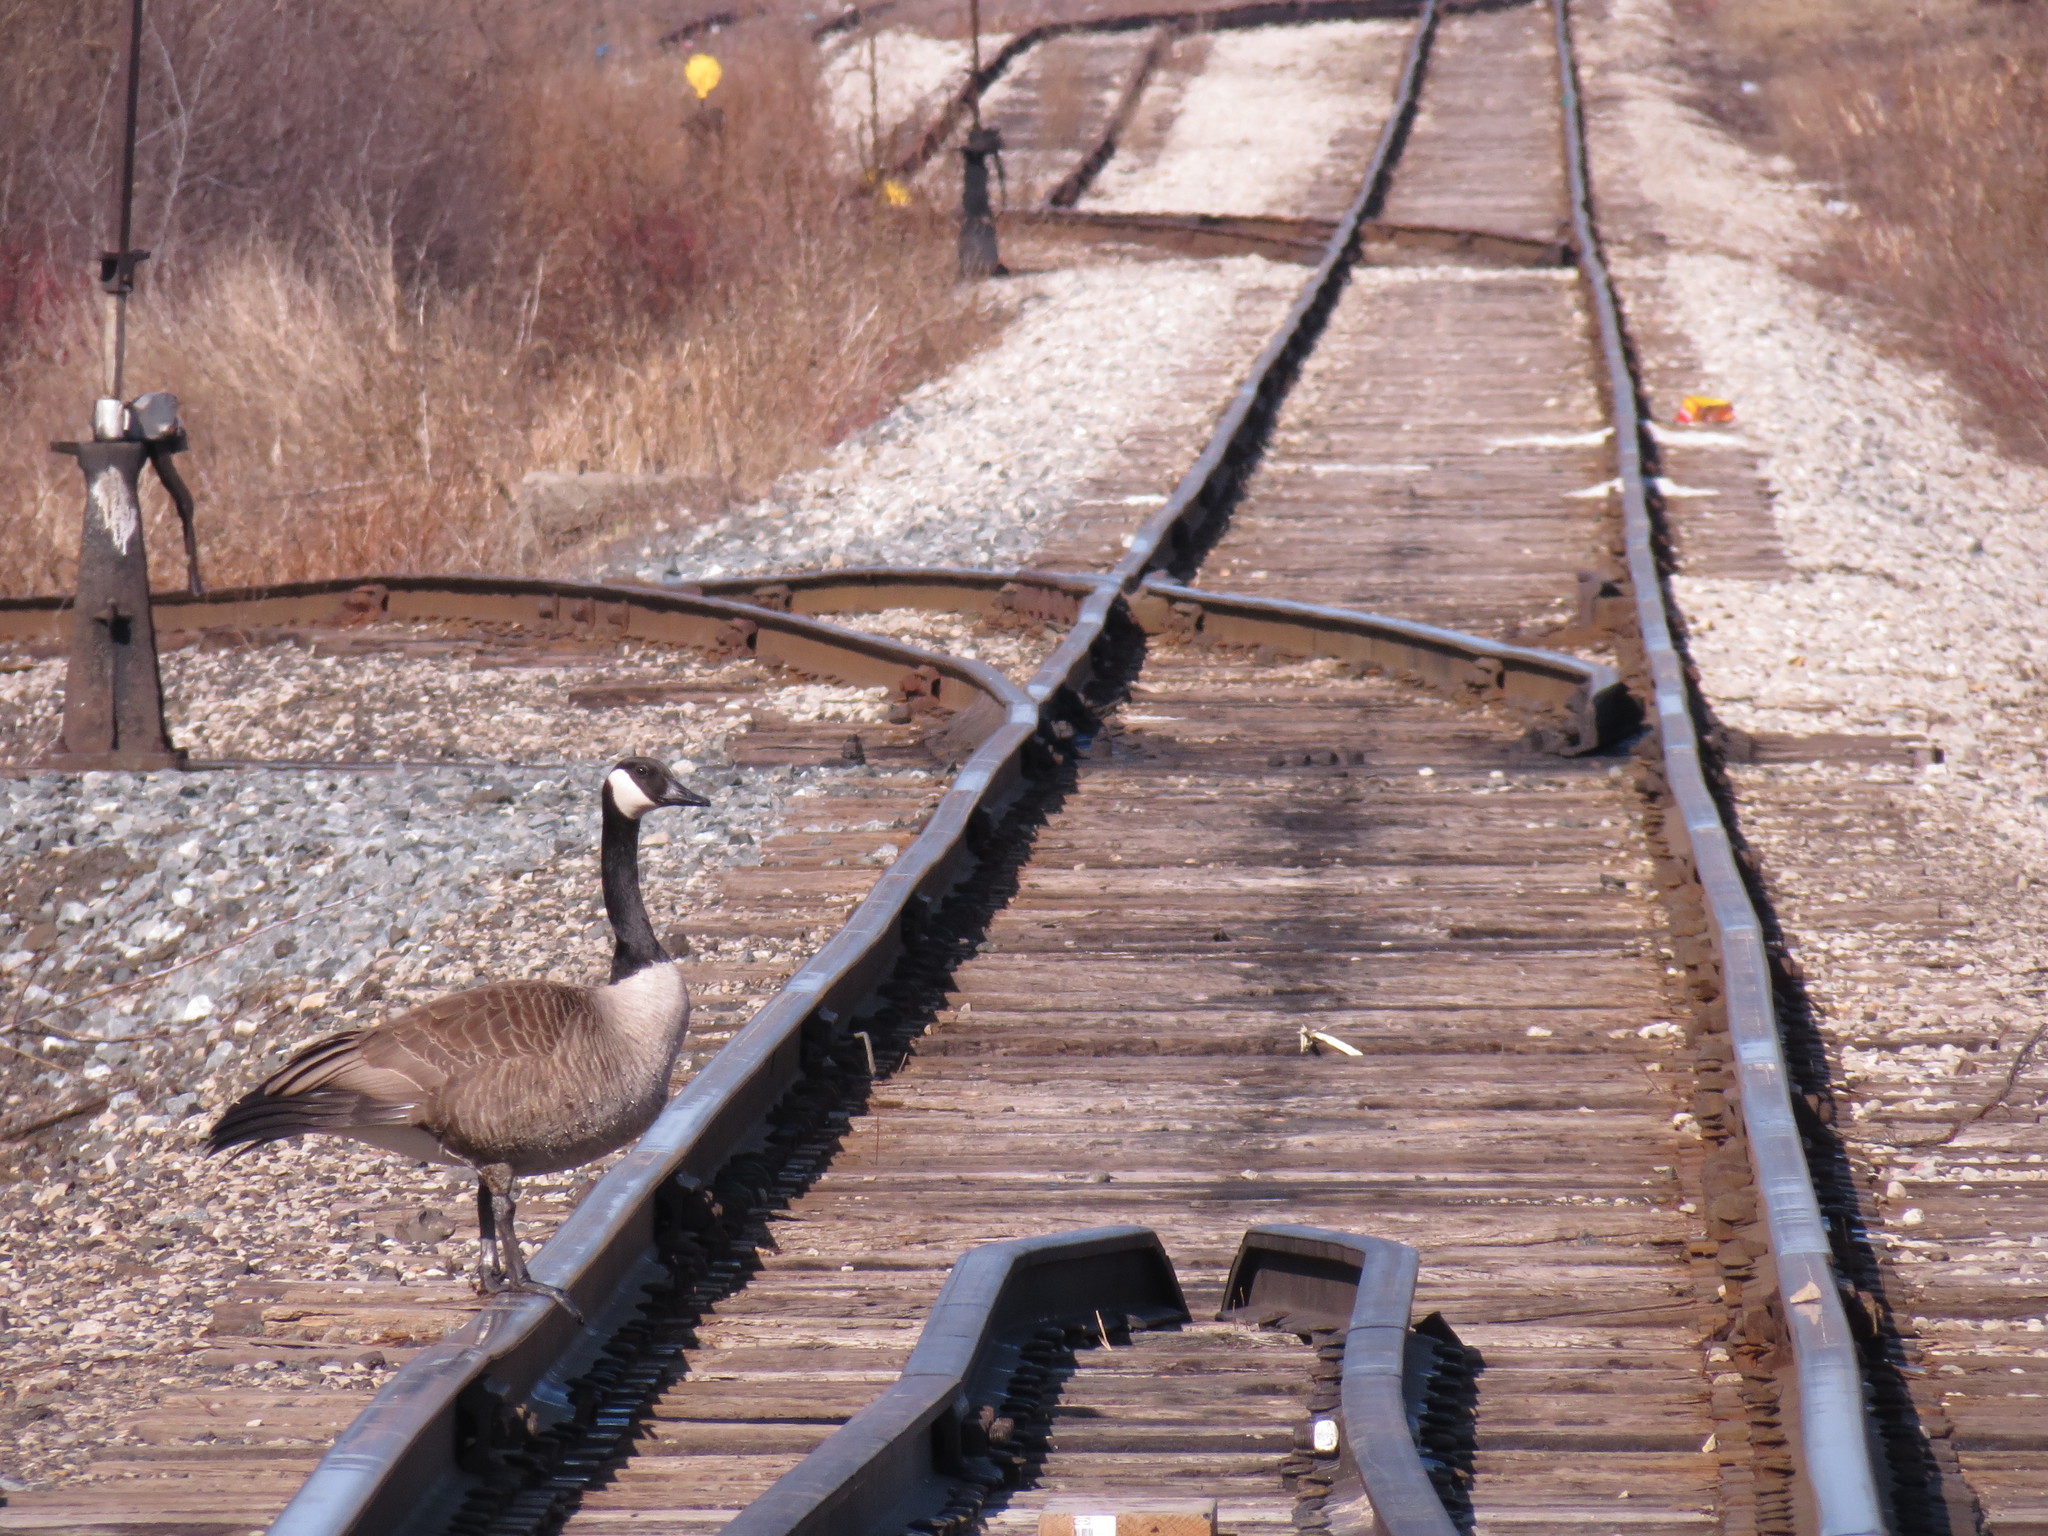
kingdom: Animalia
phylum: Chordata
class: Aves
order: Anseriformes
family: Anatidae
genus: Branta
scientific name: Branta canadensis
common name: Canada goose
